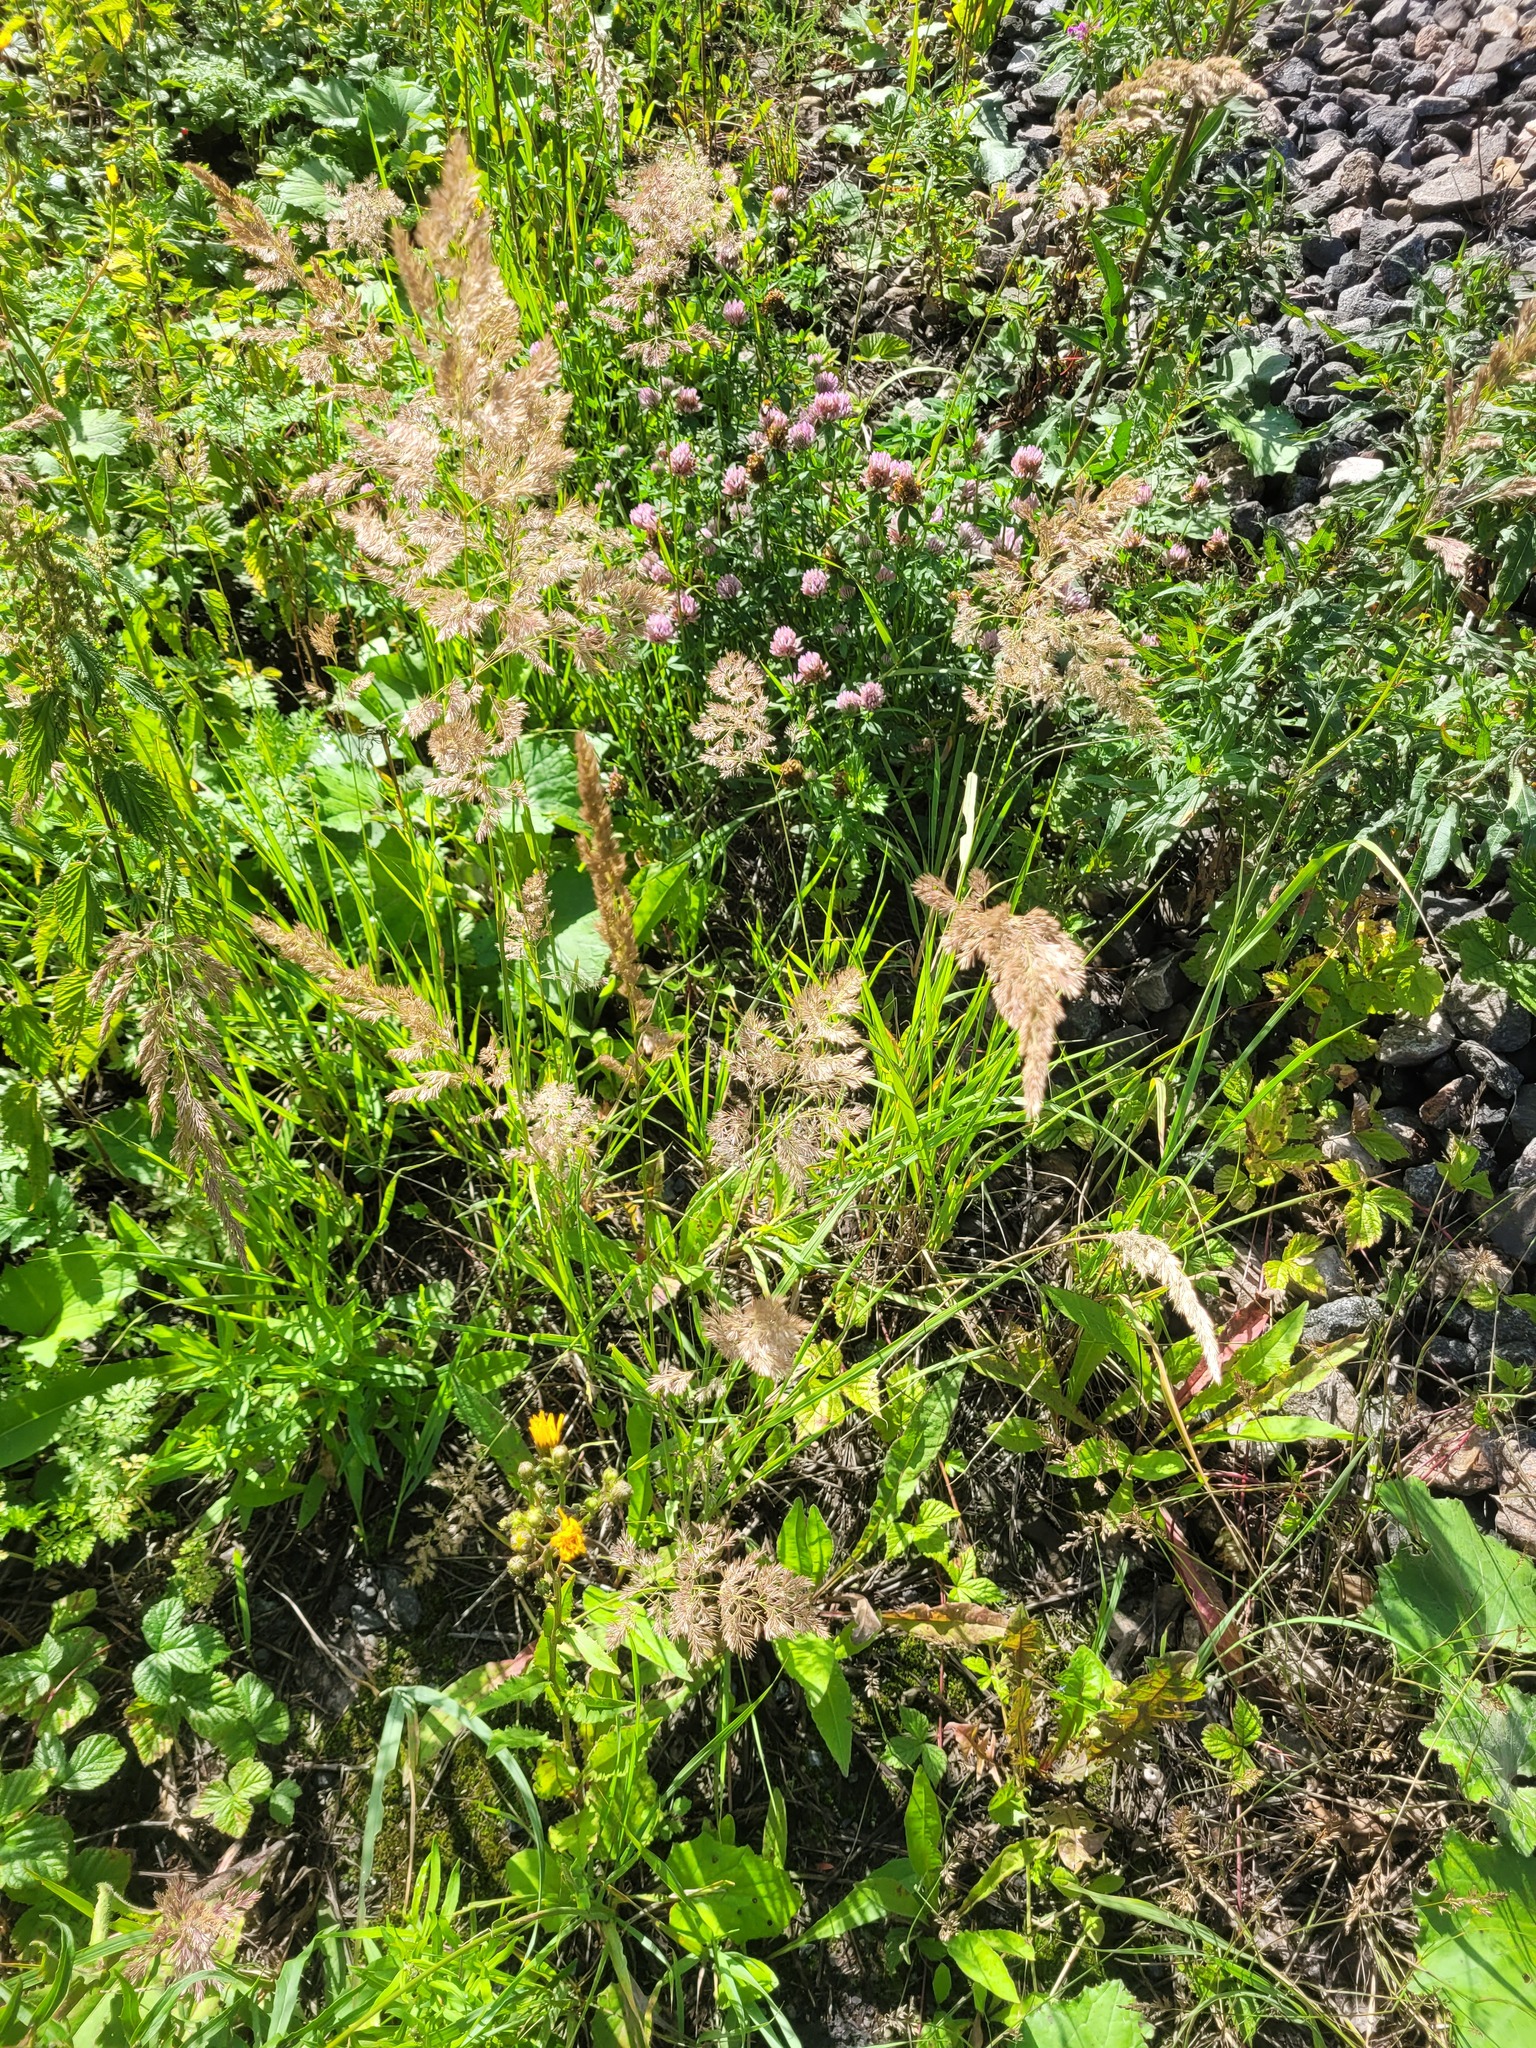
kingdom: Plantae
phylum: Tracheophyta
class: Liliopsida
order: Poales
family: Poaceae
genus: Calamagrostis
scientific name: Calamagrostis epigejos
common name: Wood small-reed
